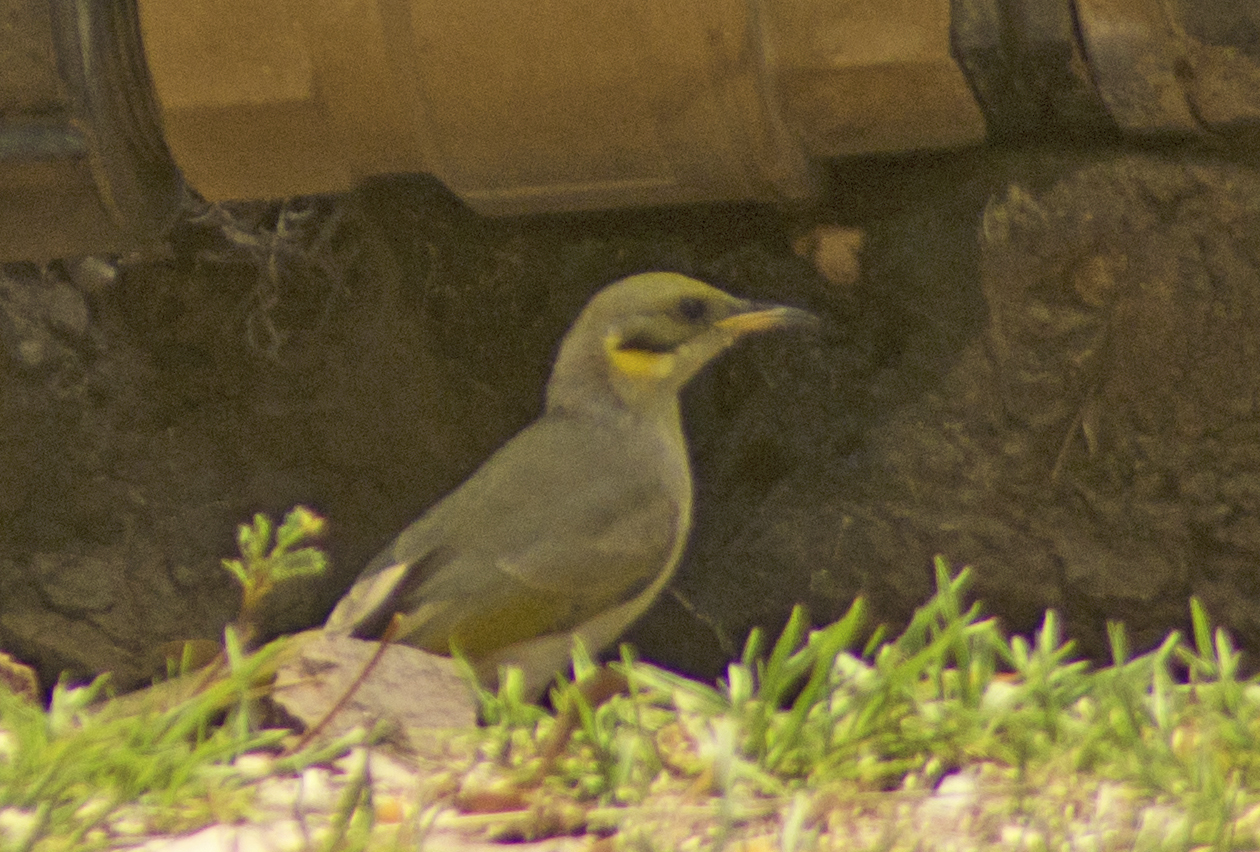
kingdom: Animalia
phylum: Chordata
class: Aves
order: Passeriformes
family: Meliphagidae
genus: Ptilotula
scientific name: Ptilotula plumula
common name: Grey-fronted honeyeater
